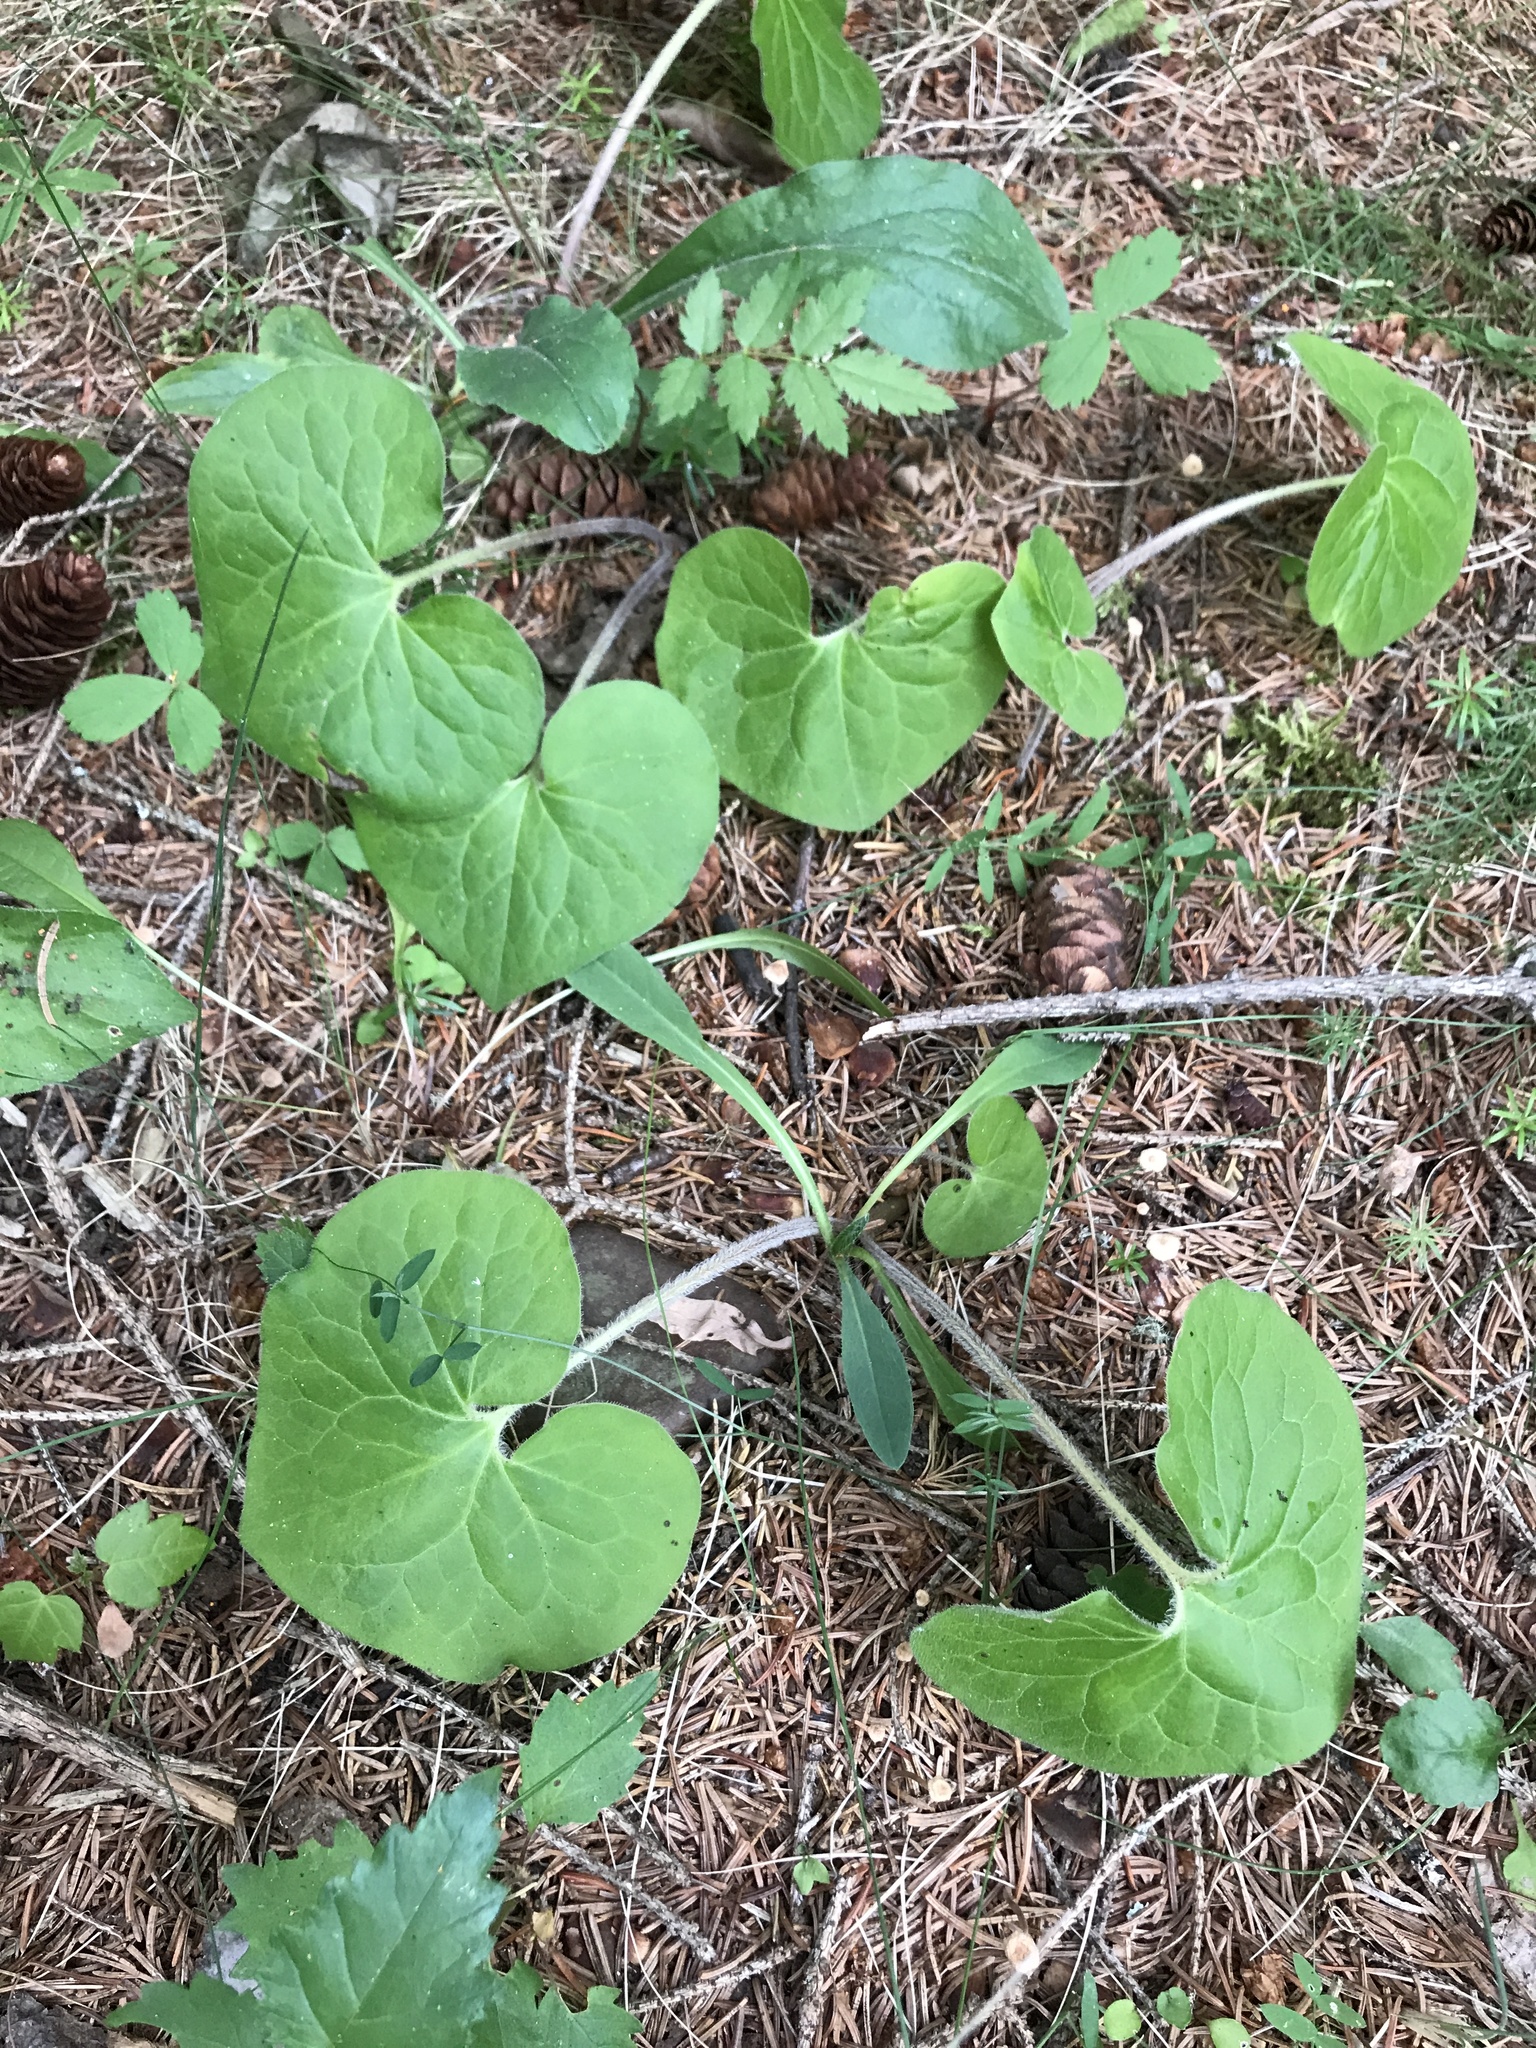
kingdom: Plantae
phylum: Tracheophyta
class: Magnoliopsida
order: Piperales
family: Aristolochiaceae
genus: Asarum
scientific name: Asarum canadense
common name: Wild ginger
